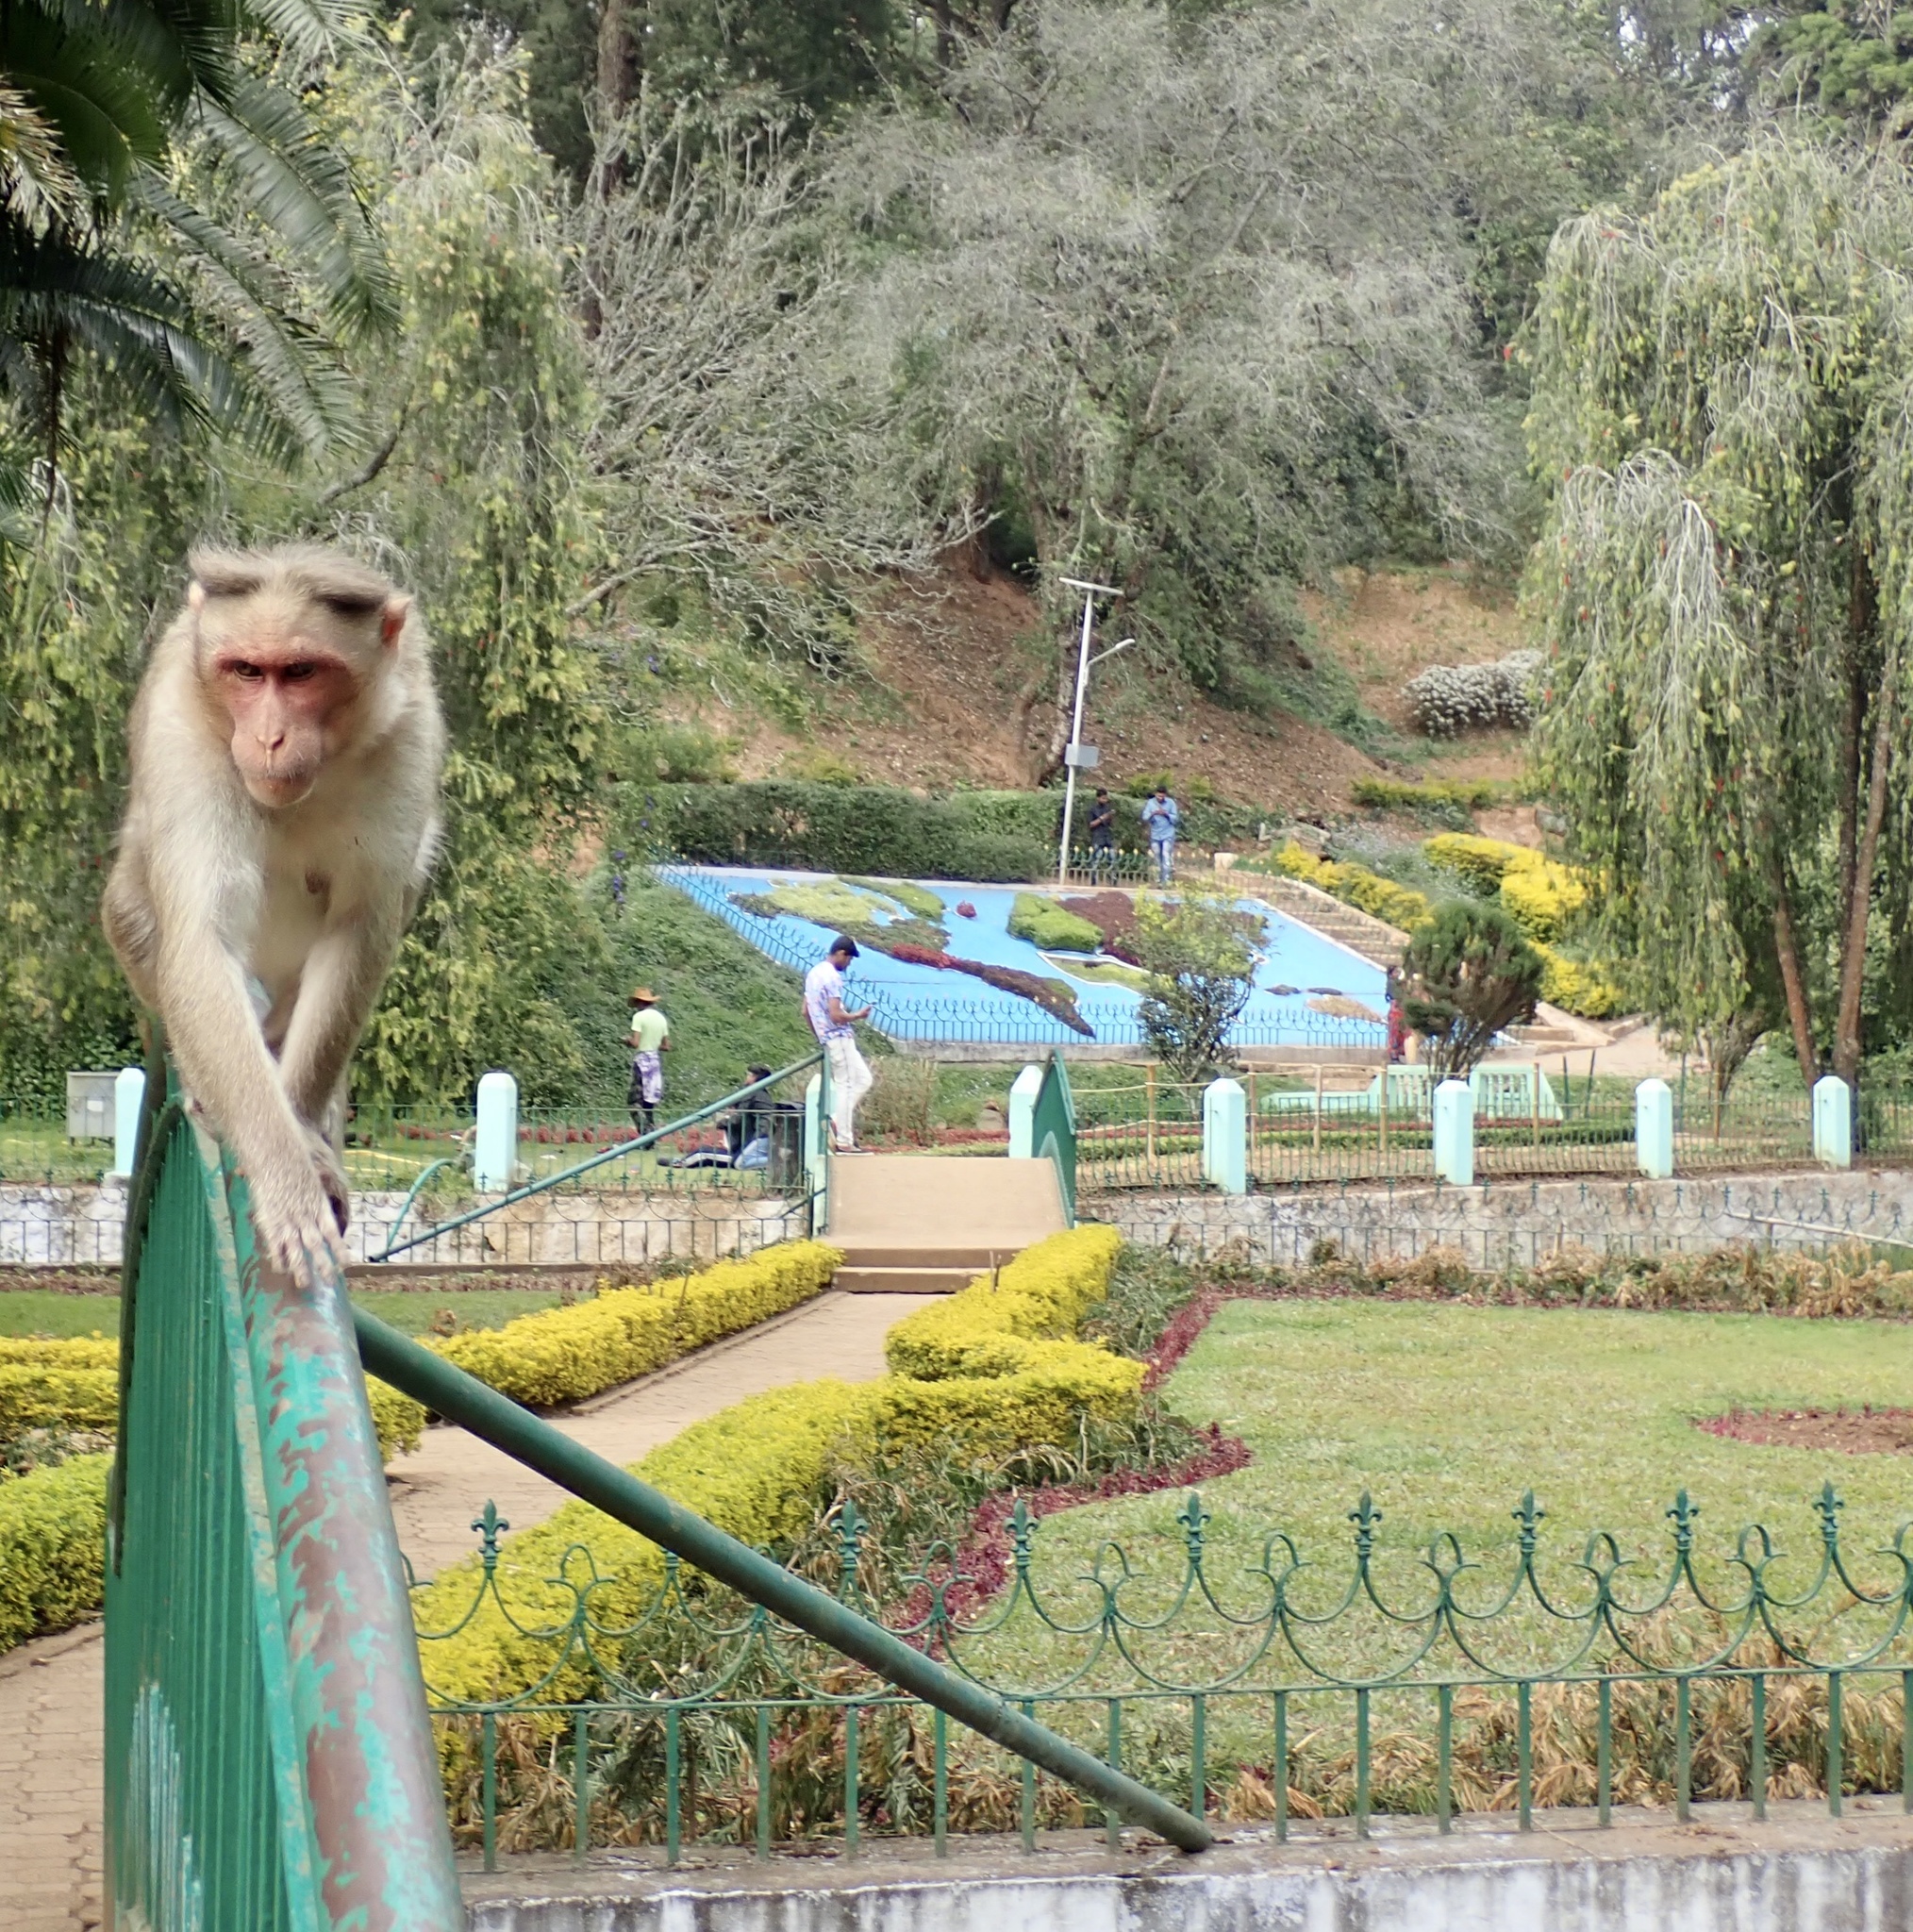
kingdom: Animalia
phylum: Chordata
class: Mammalia
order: Primates
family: Cercopithecidae
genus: Macaca
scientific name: Macaca radiata
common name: Bonnet macaque
